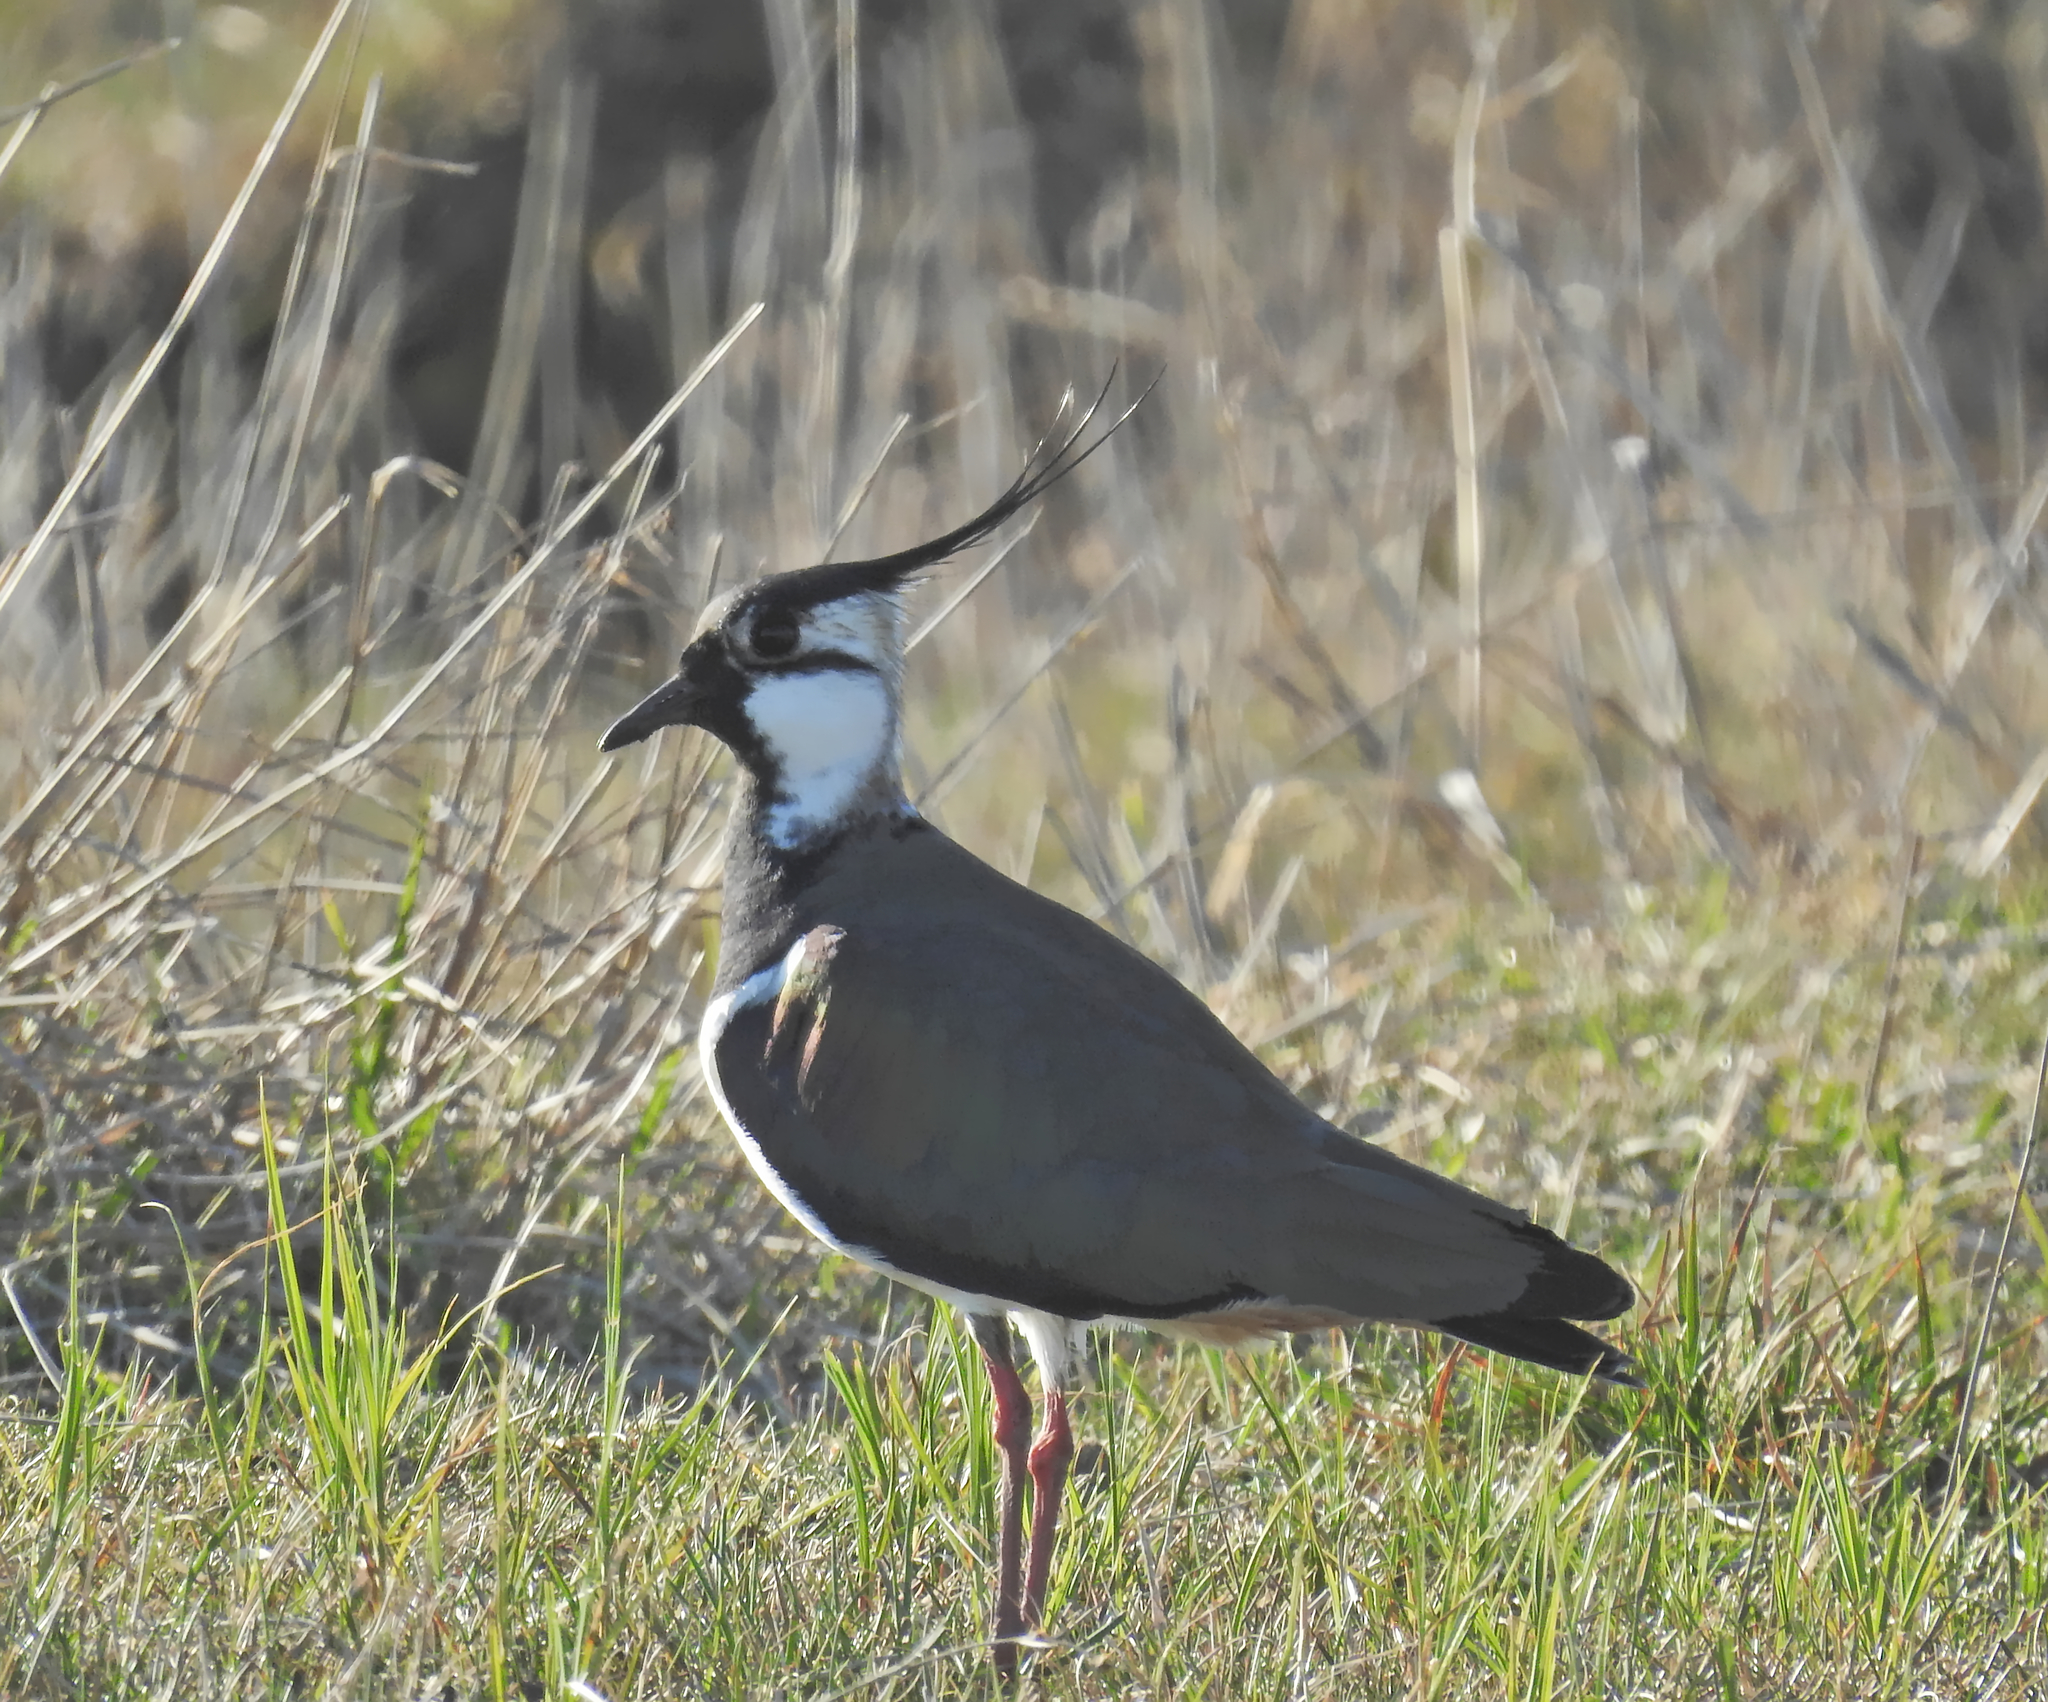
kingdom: Animalia
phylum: Chordata
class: Aves
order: Charadriiformes
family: Charadriidae
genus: Vanellus
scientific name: Vanellus vanellus
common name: Northern lapwing
